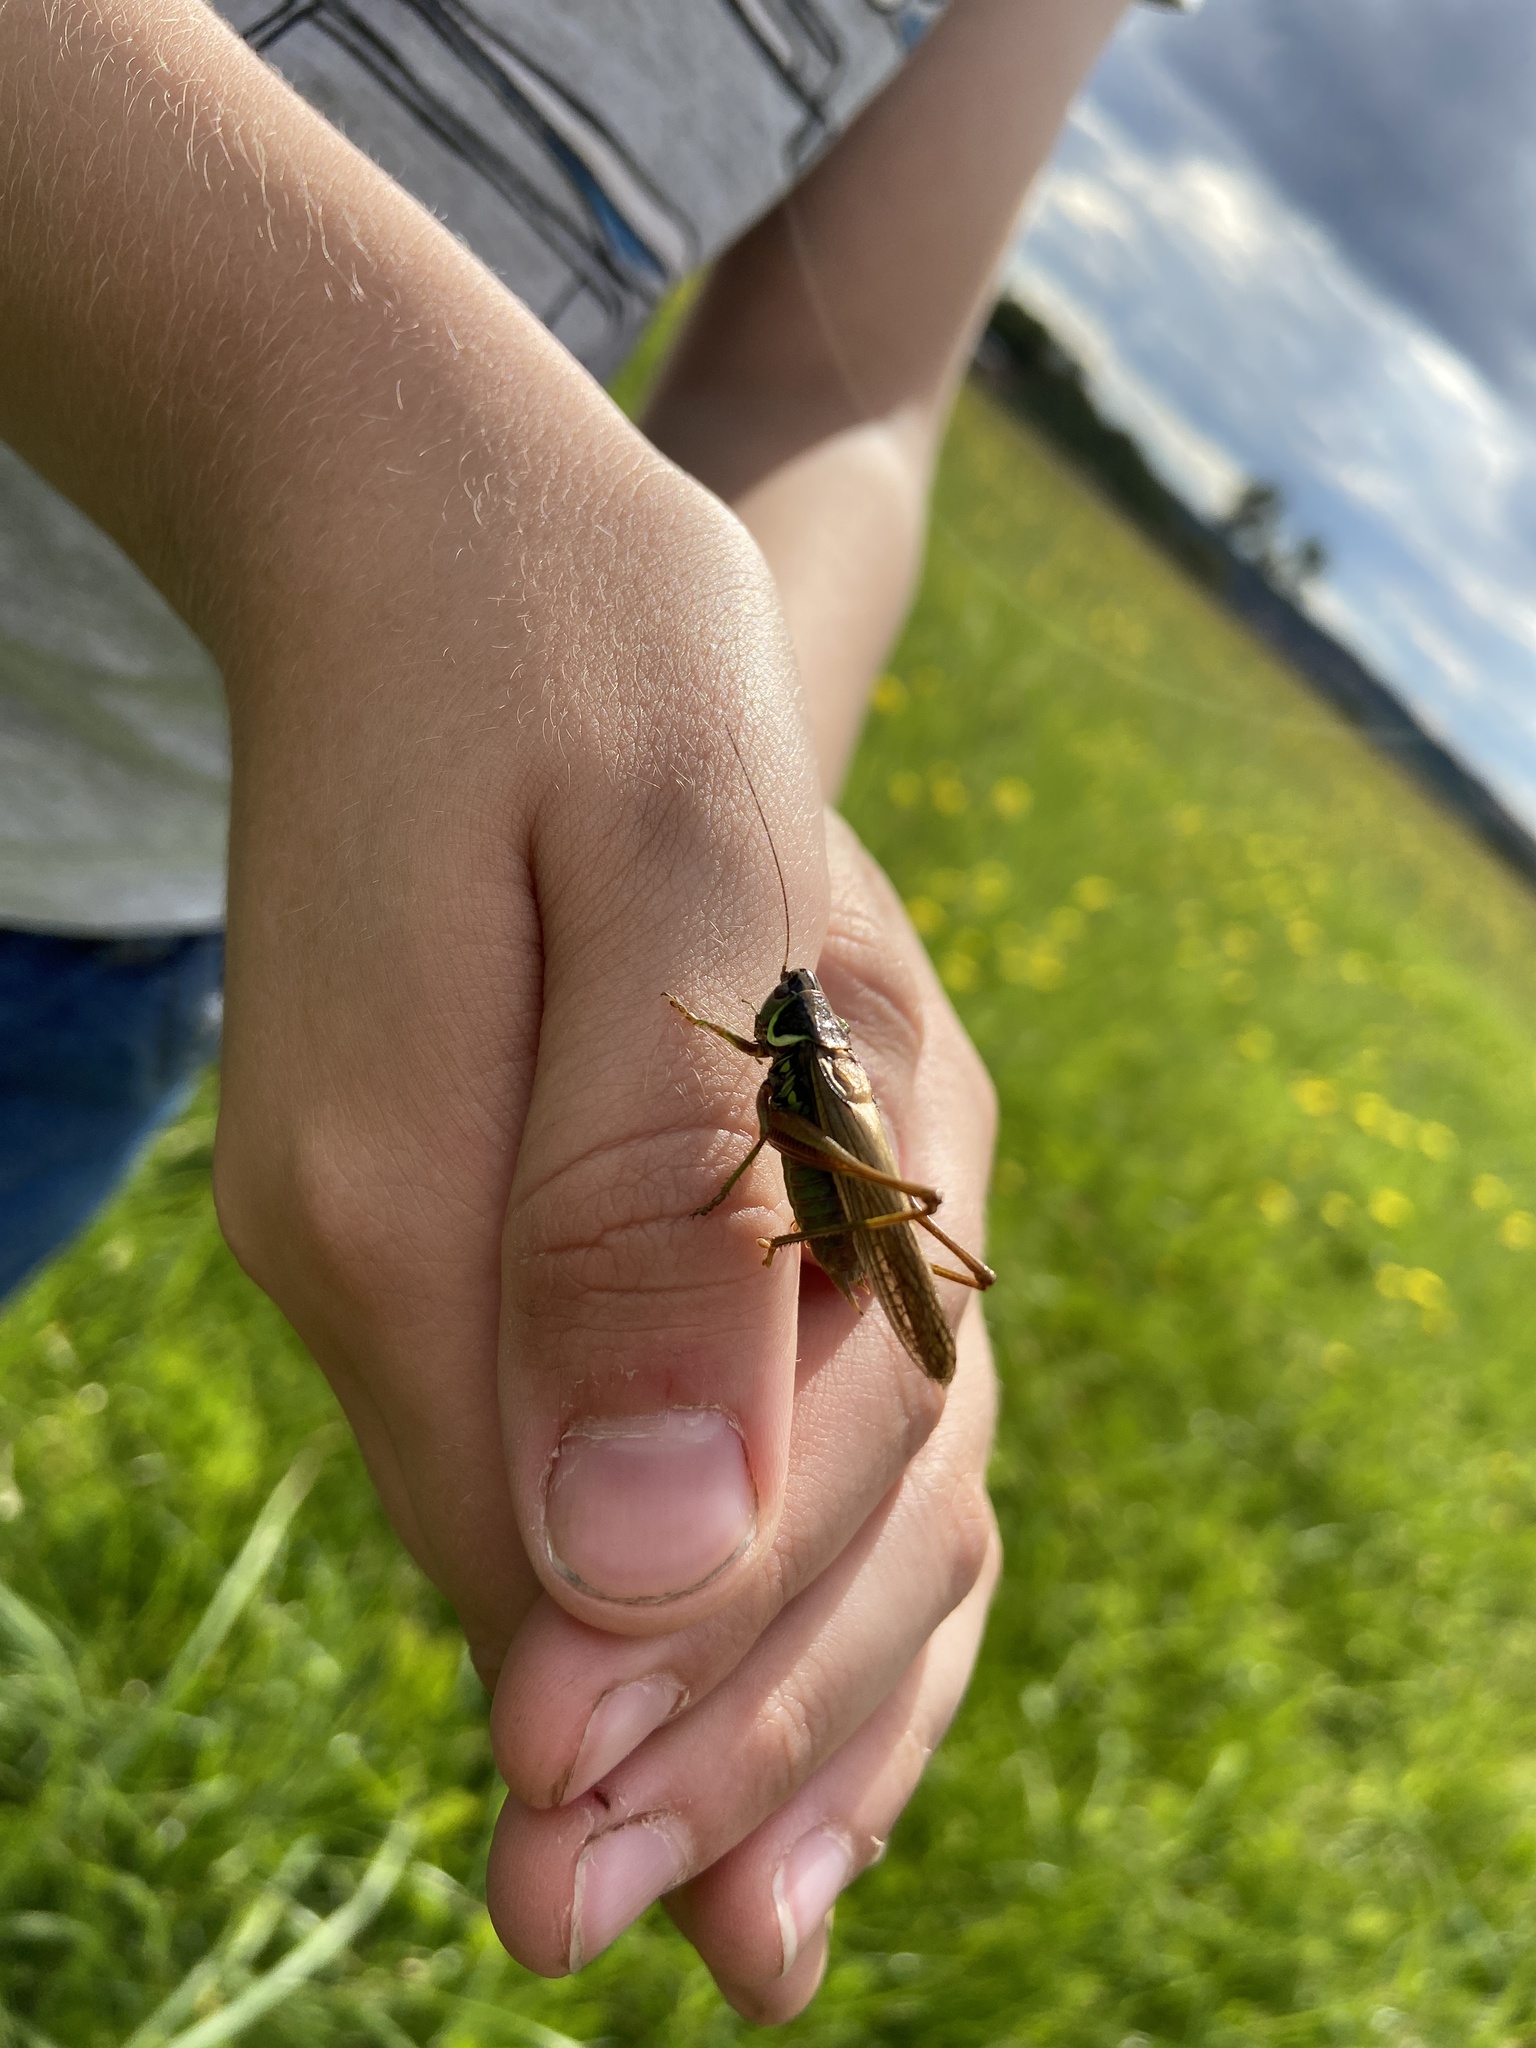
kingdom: Animalia
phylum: Arthropoda
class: Insecta
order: Orthoptera
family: Tettigoniidae
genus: Roeseliana
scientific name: Roeseliana roeselii
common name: Roesel's bush cricket
